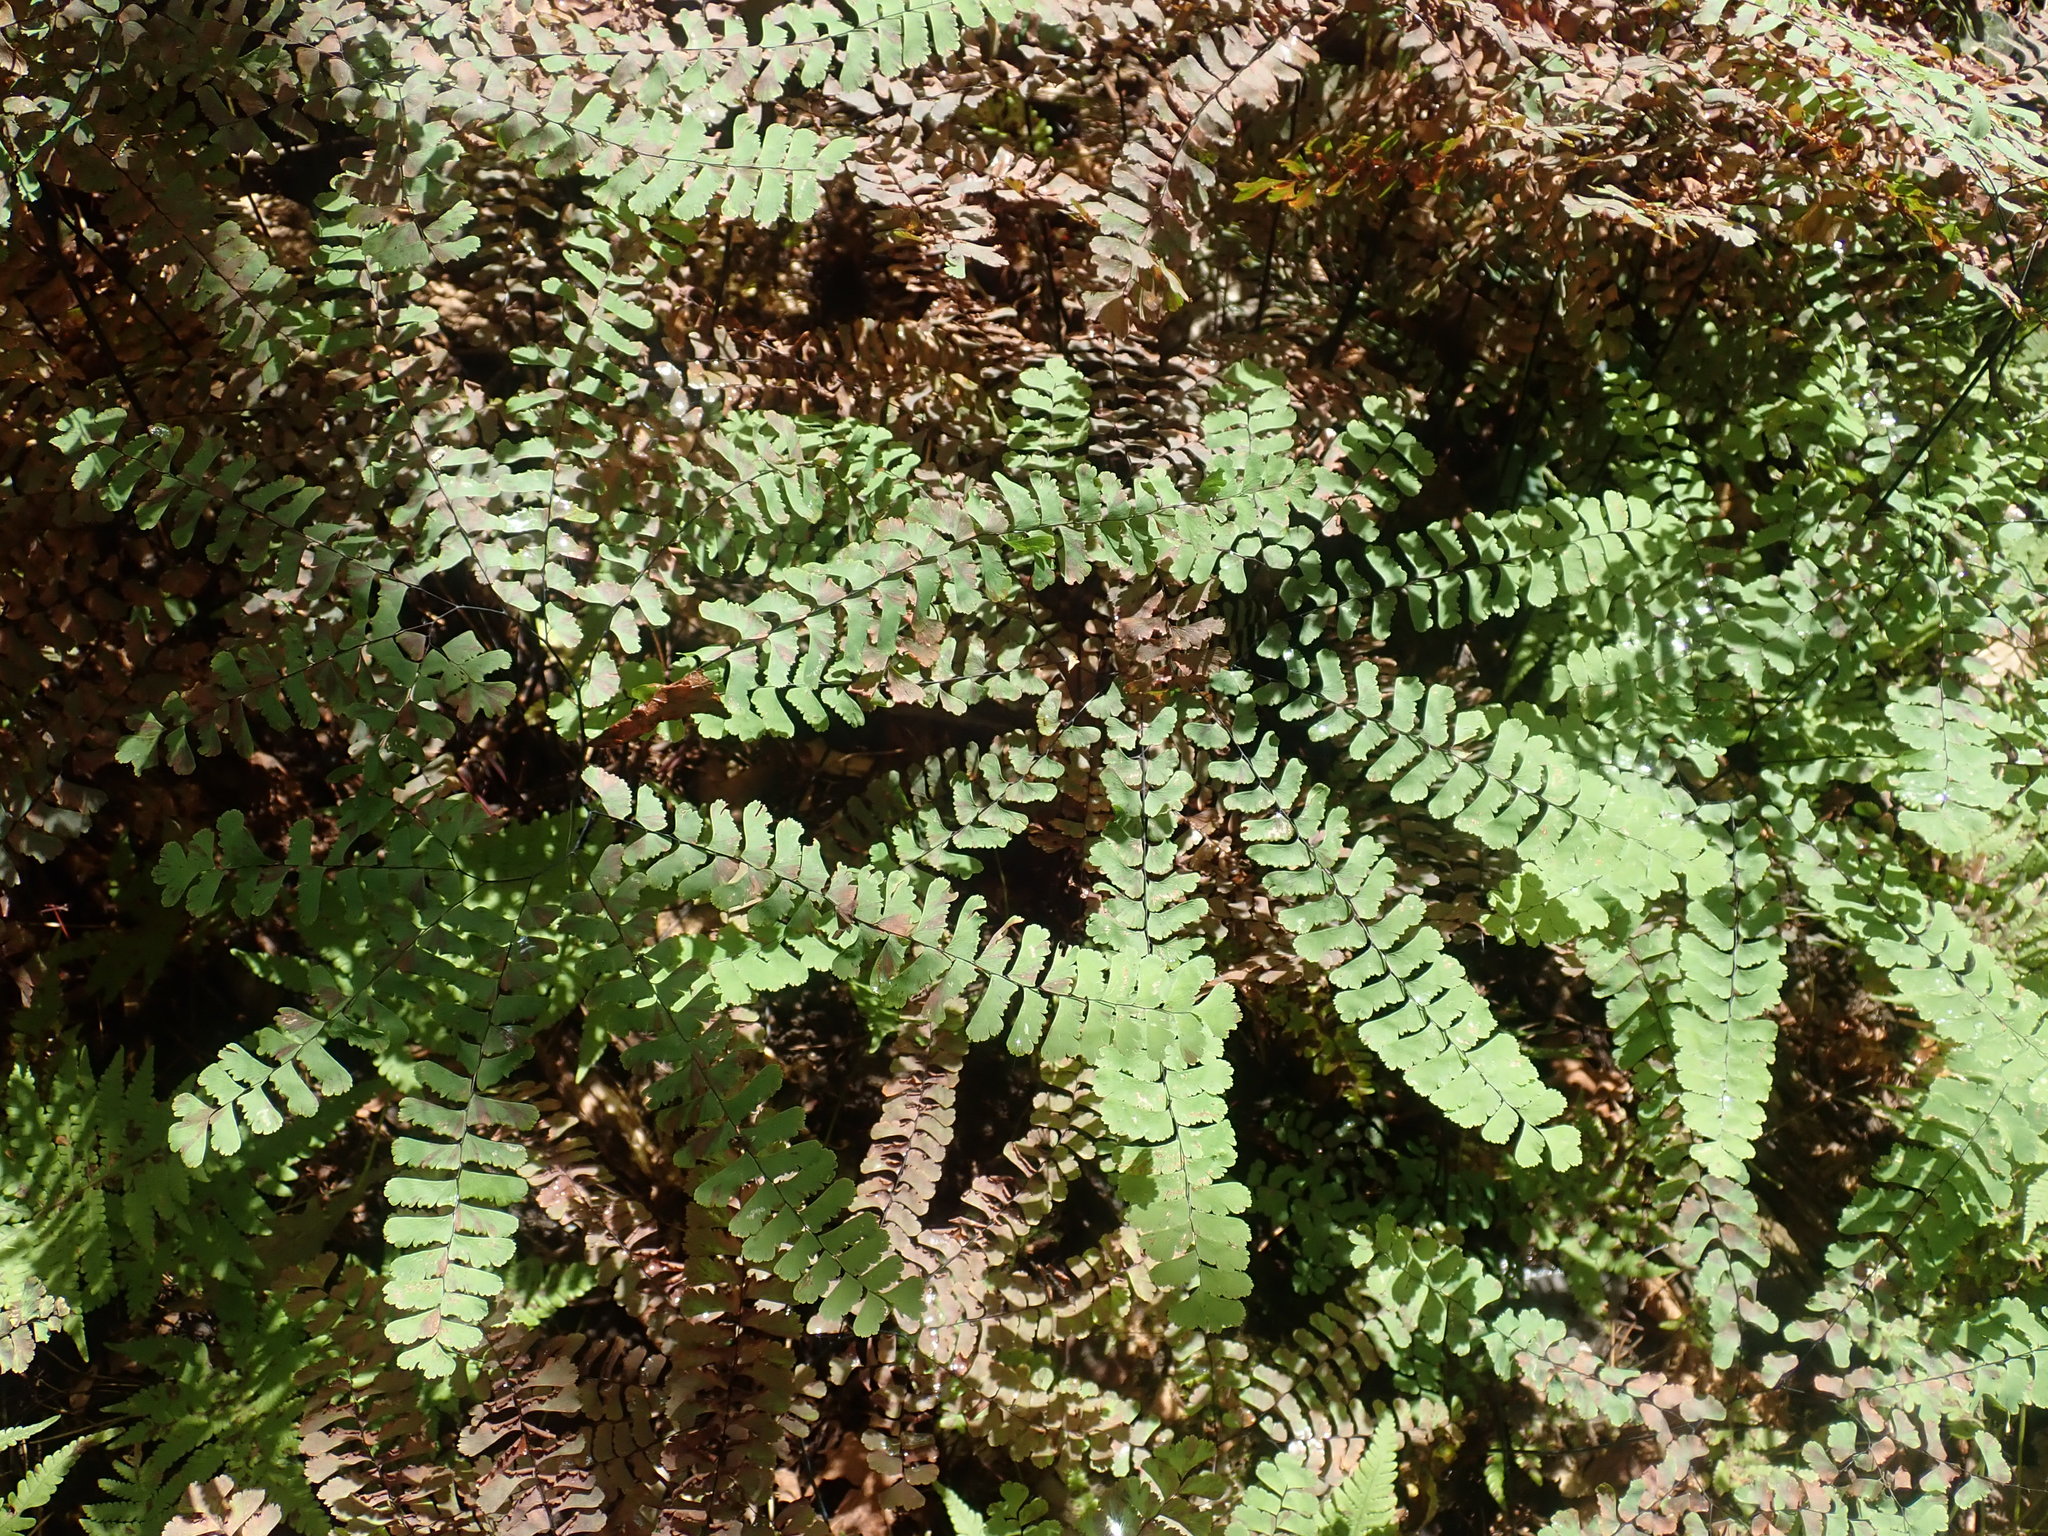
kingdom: Plantae
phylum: Tracheophyta
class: Polypodiopsida
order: Polypodiales
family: Pteridaceae
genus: Adiantum
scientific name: Adiantum pedatum
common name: Five-finger fern
